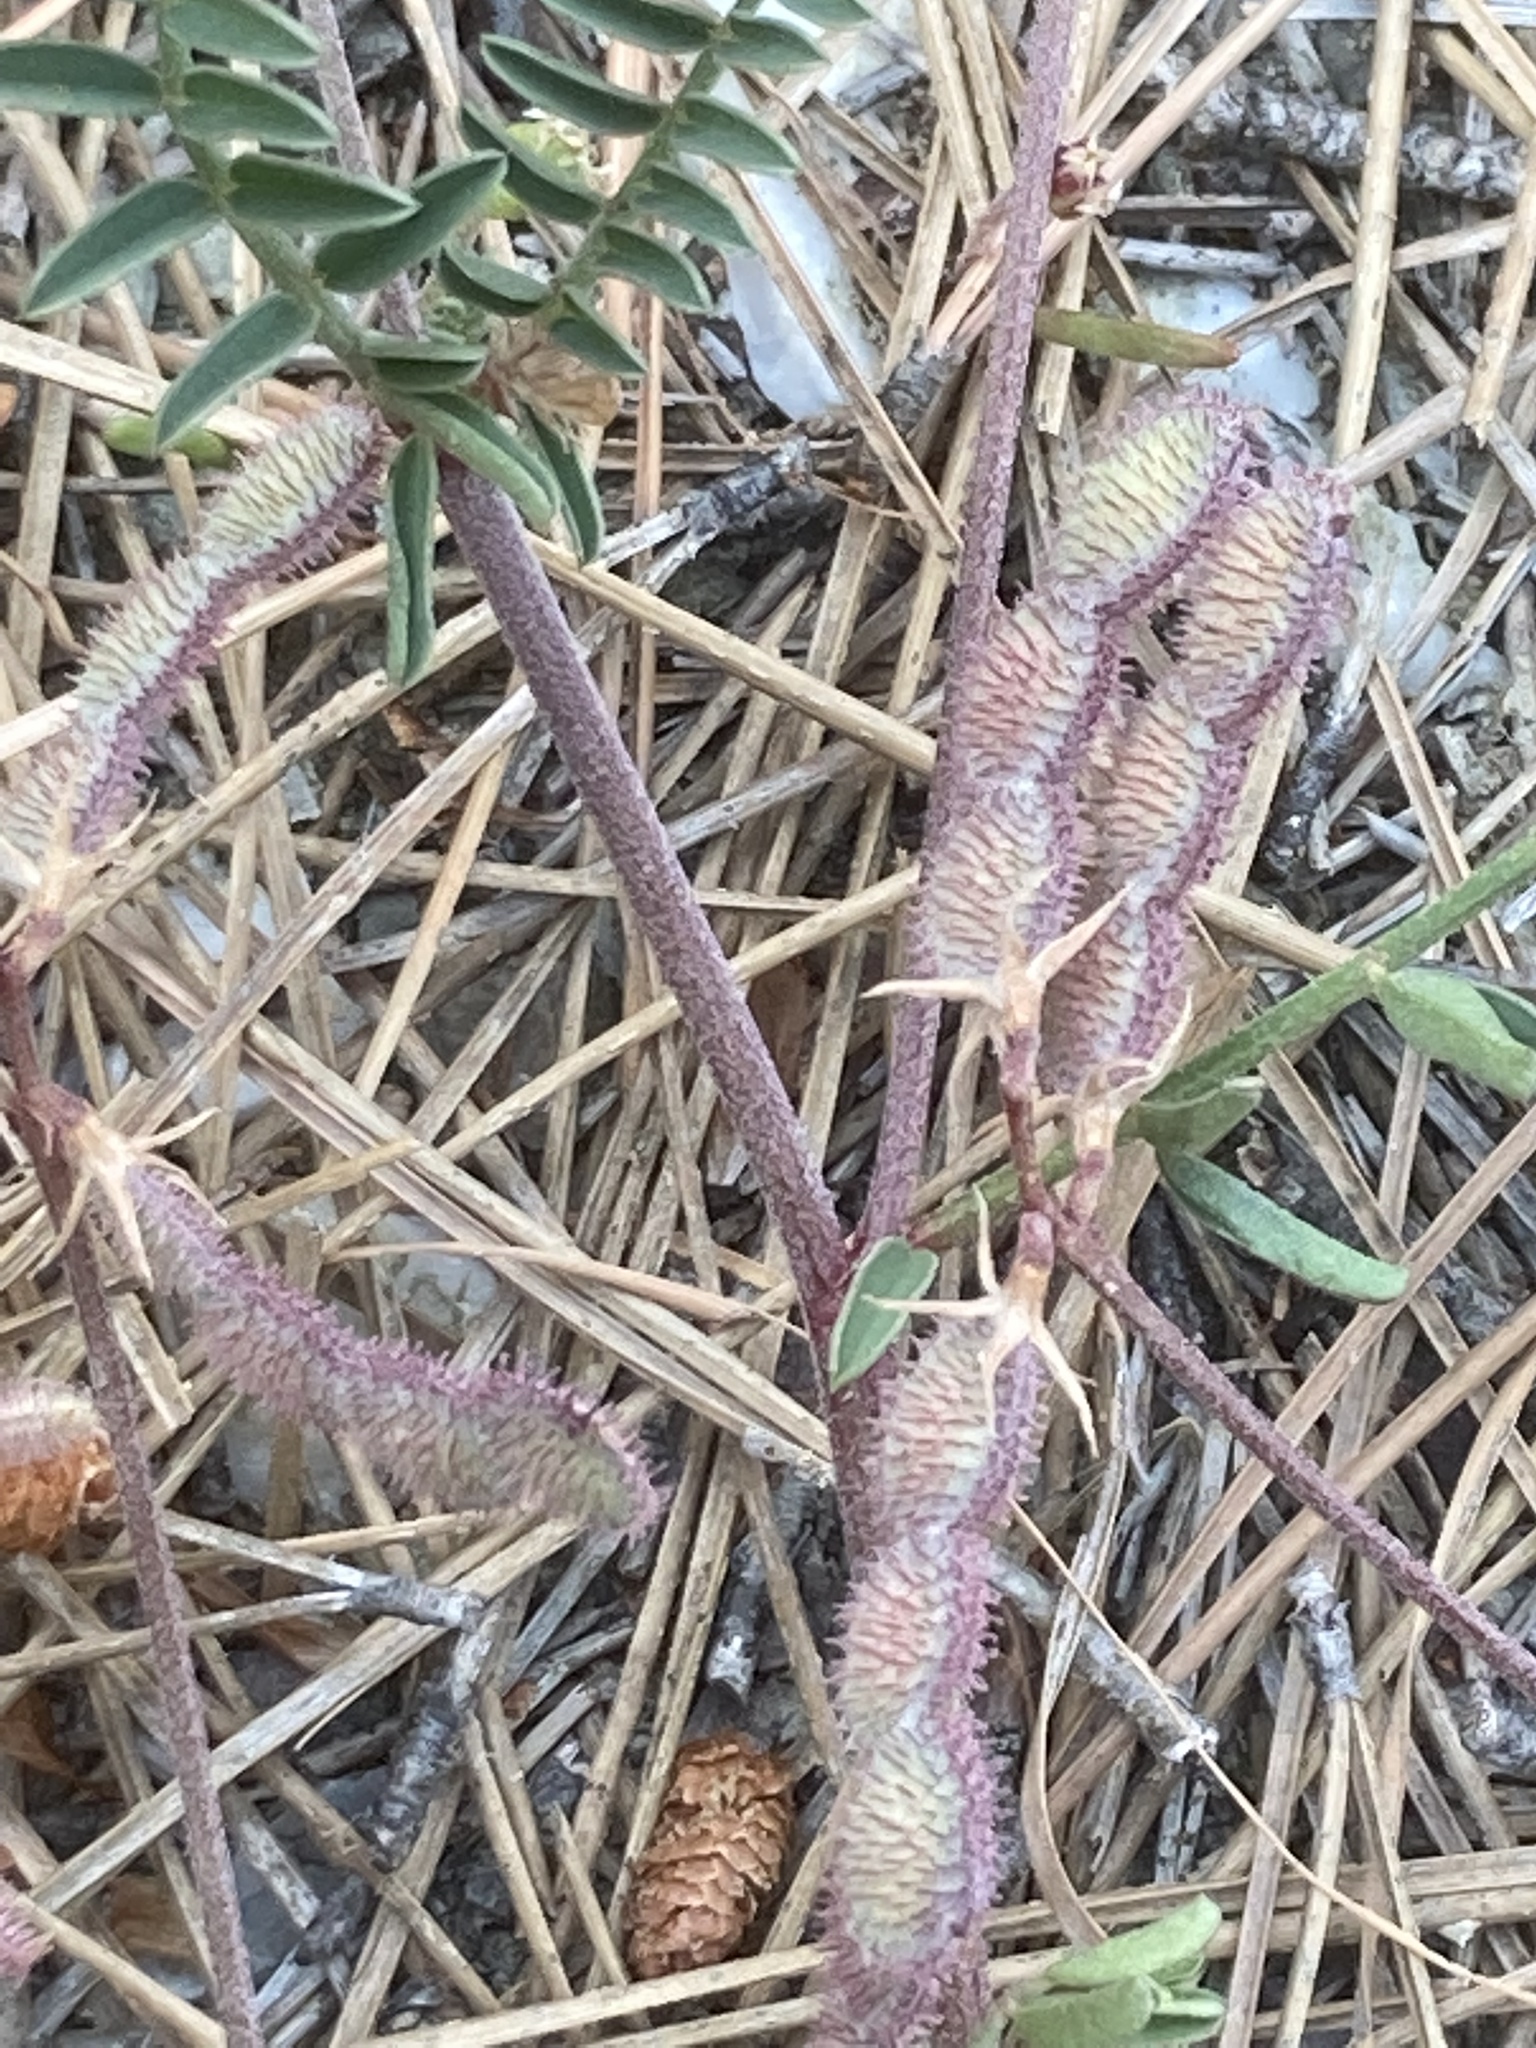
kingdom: Plantae
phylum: Tracheophyta
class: Magnoliopsida
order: Fabales
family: Fabaceae
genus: Sulla
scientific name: Sulla spinosissima
